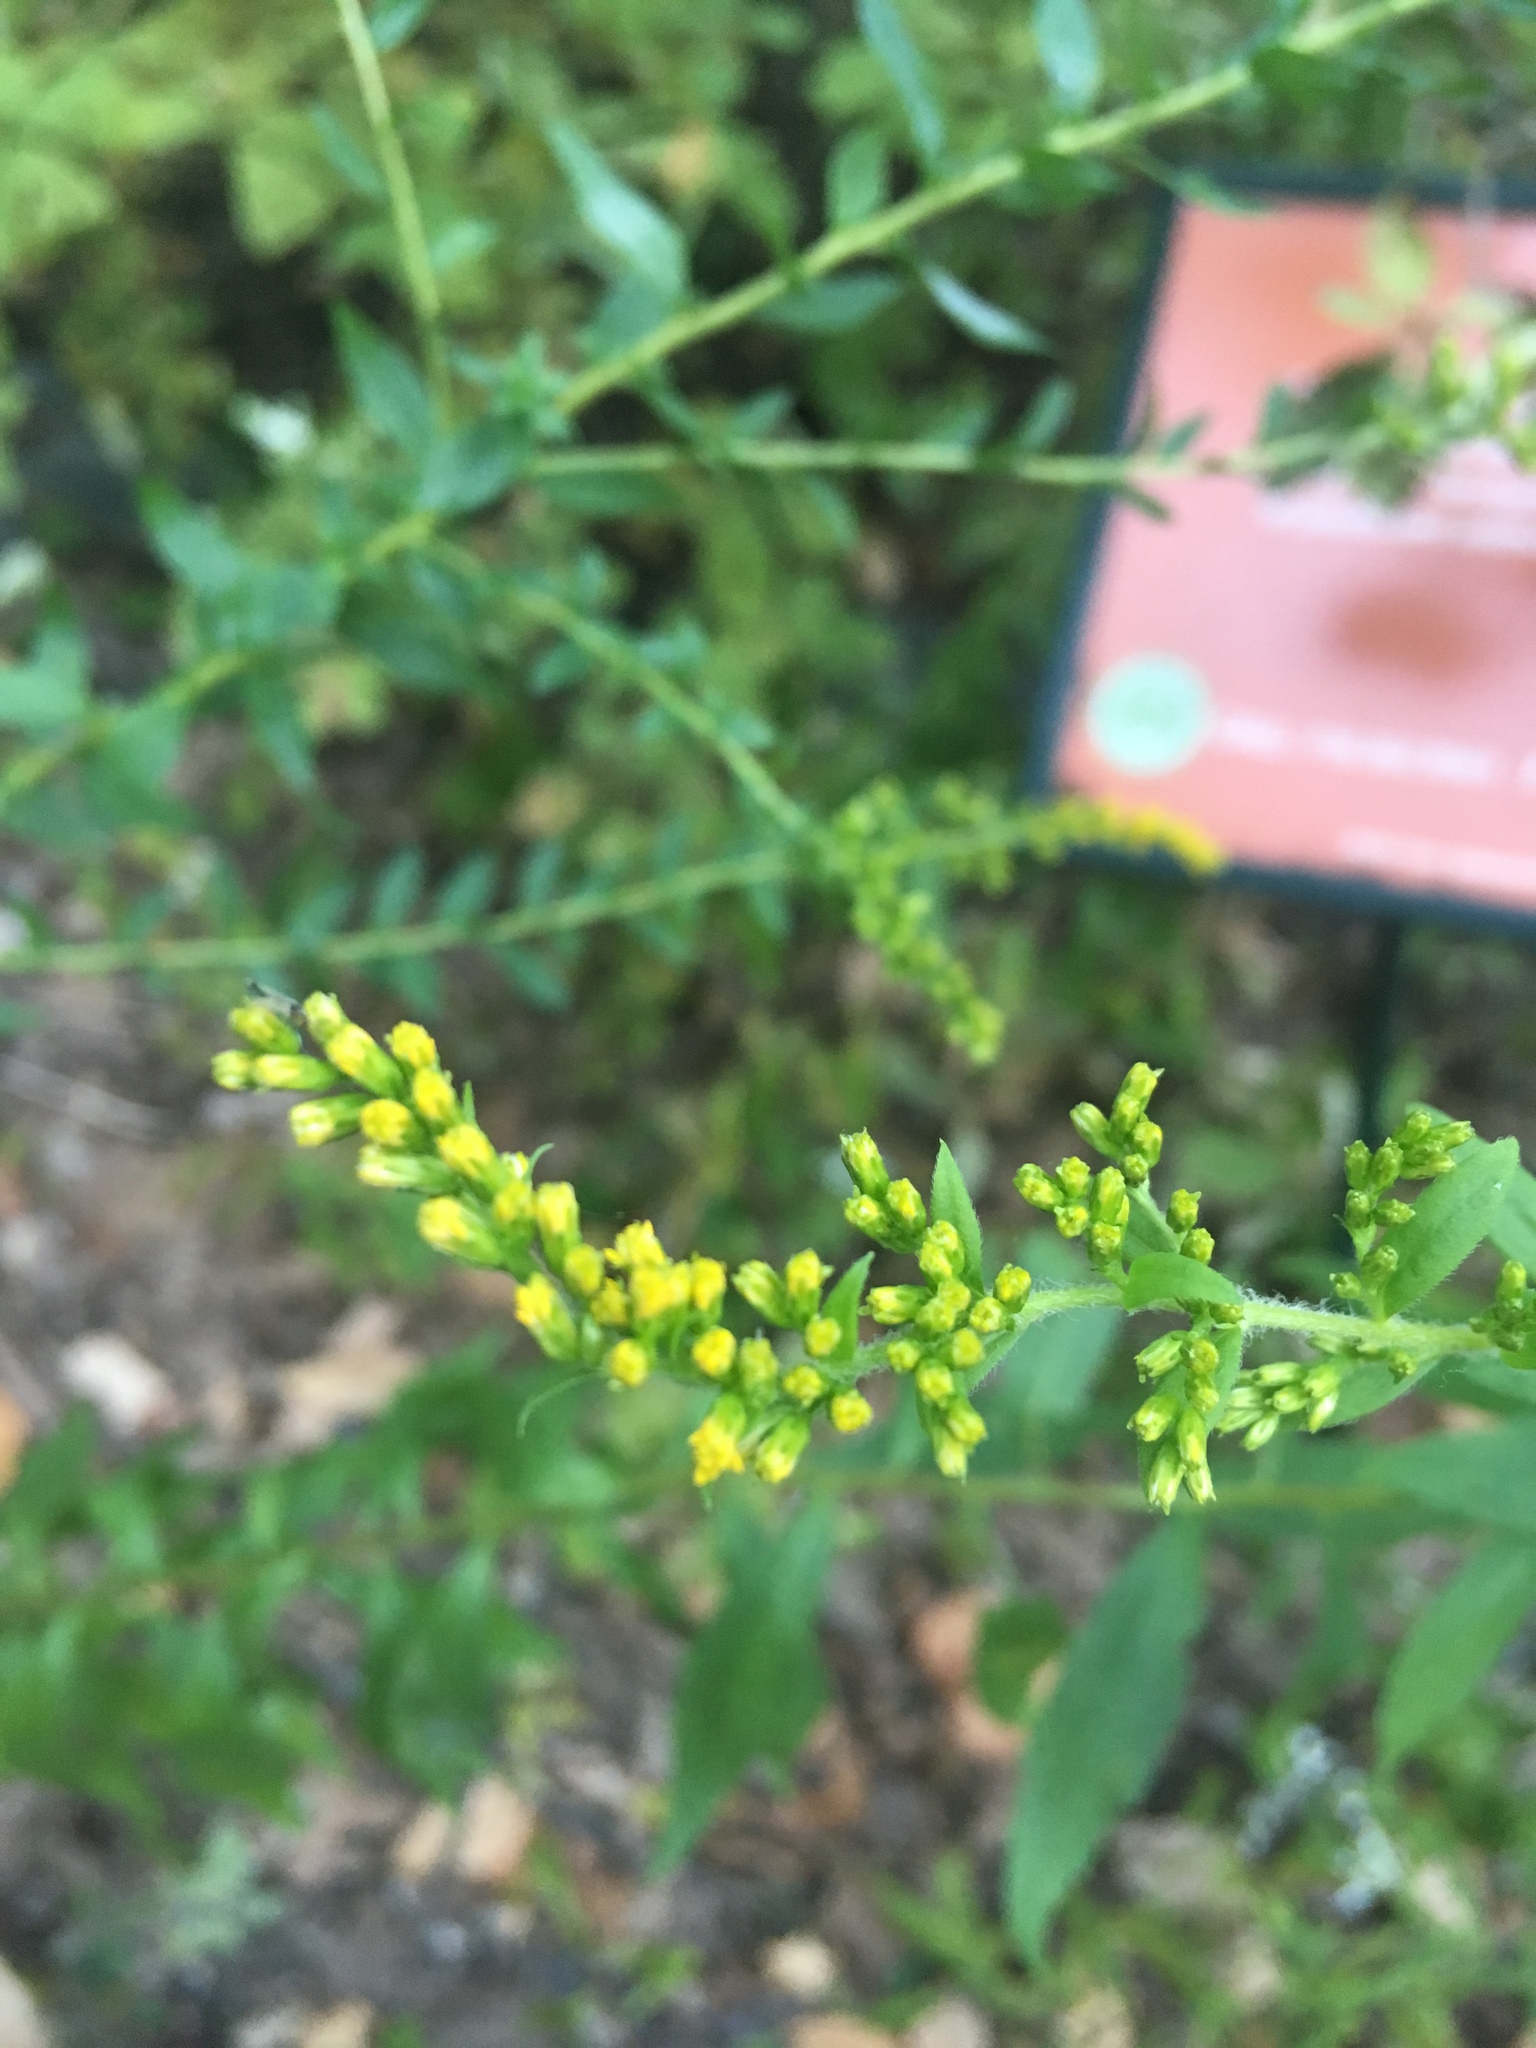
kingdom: Plantae
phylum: Tracheophyta
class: Magnoliopsida
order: Asterales
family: Asteraceae
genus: Solidago
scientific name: Solidago rugosa
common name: Rough-stemmed goldenrod
